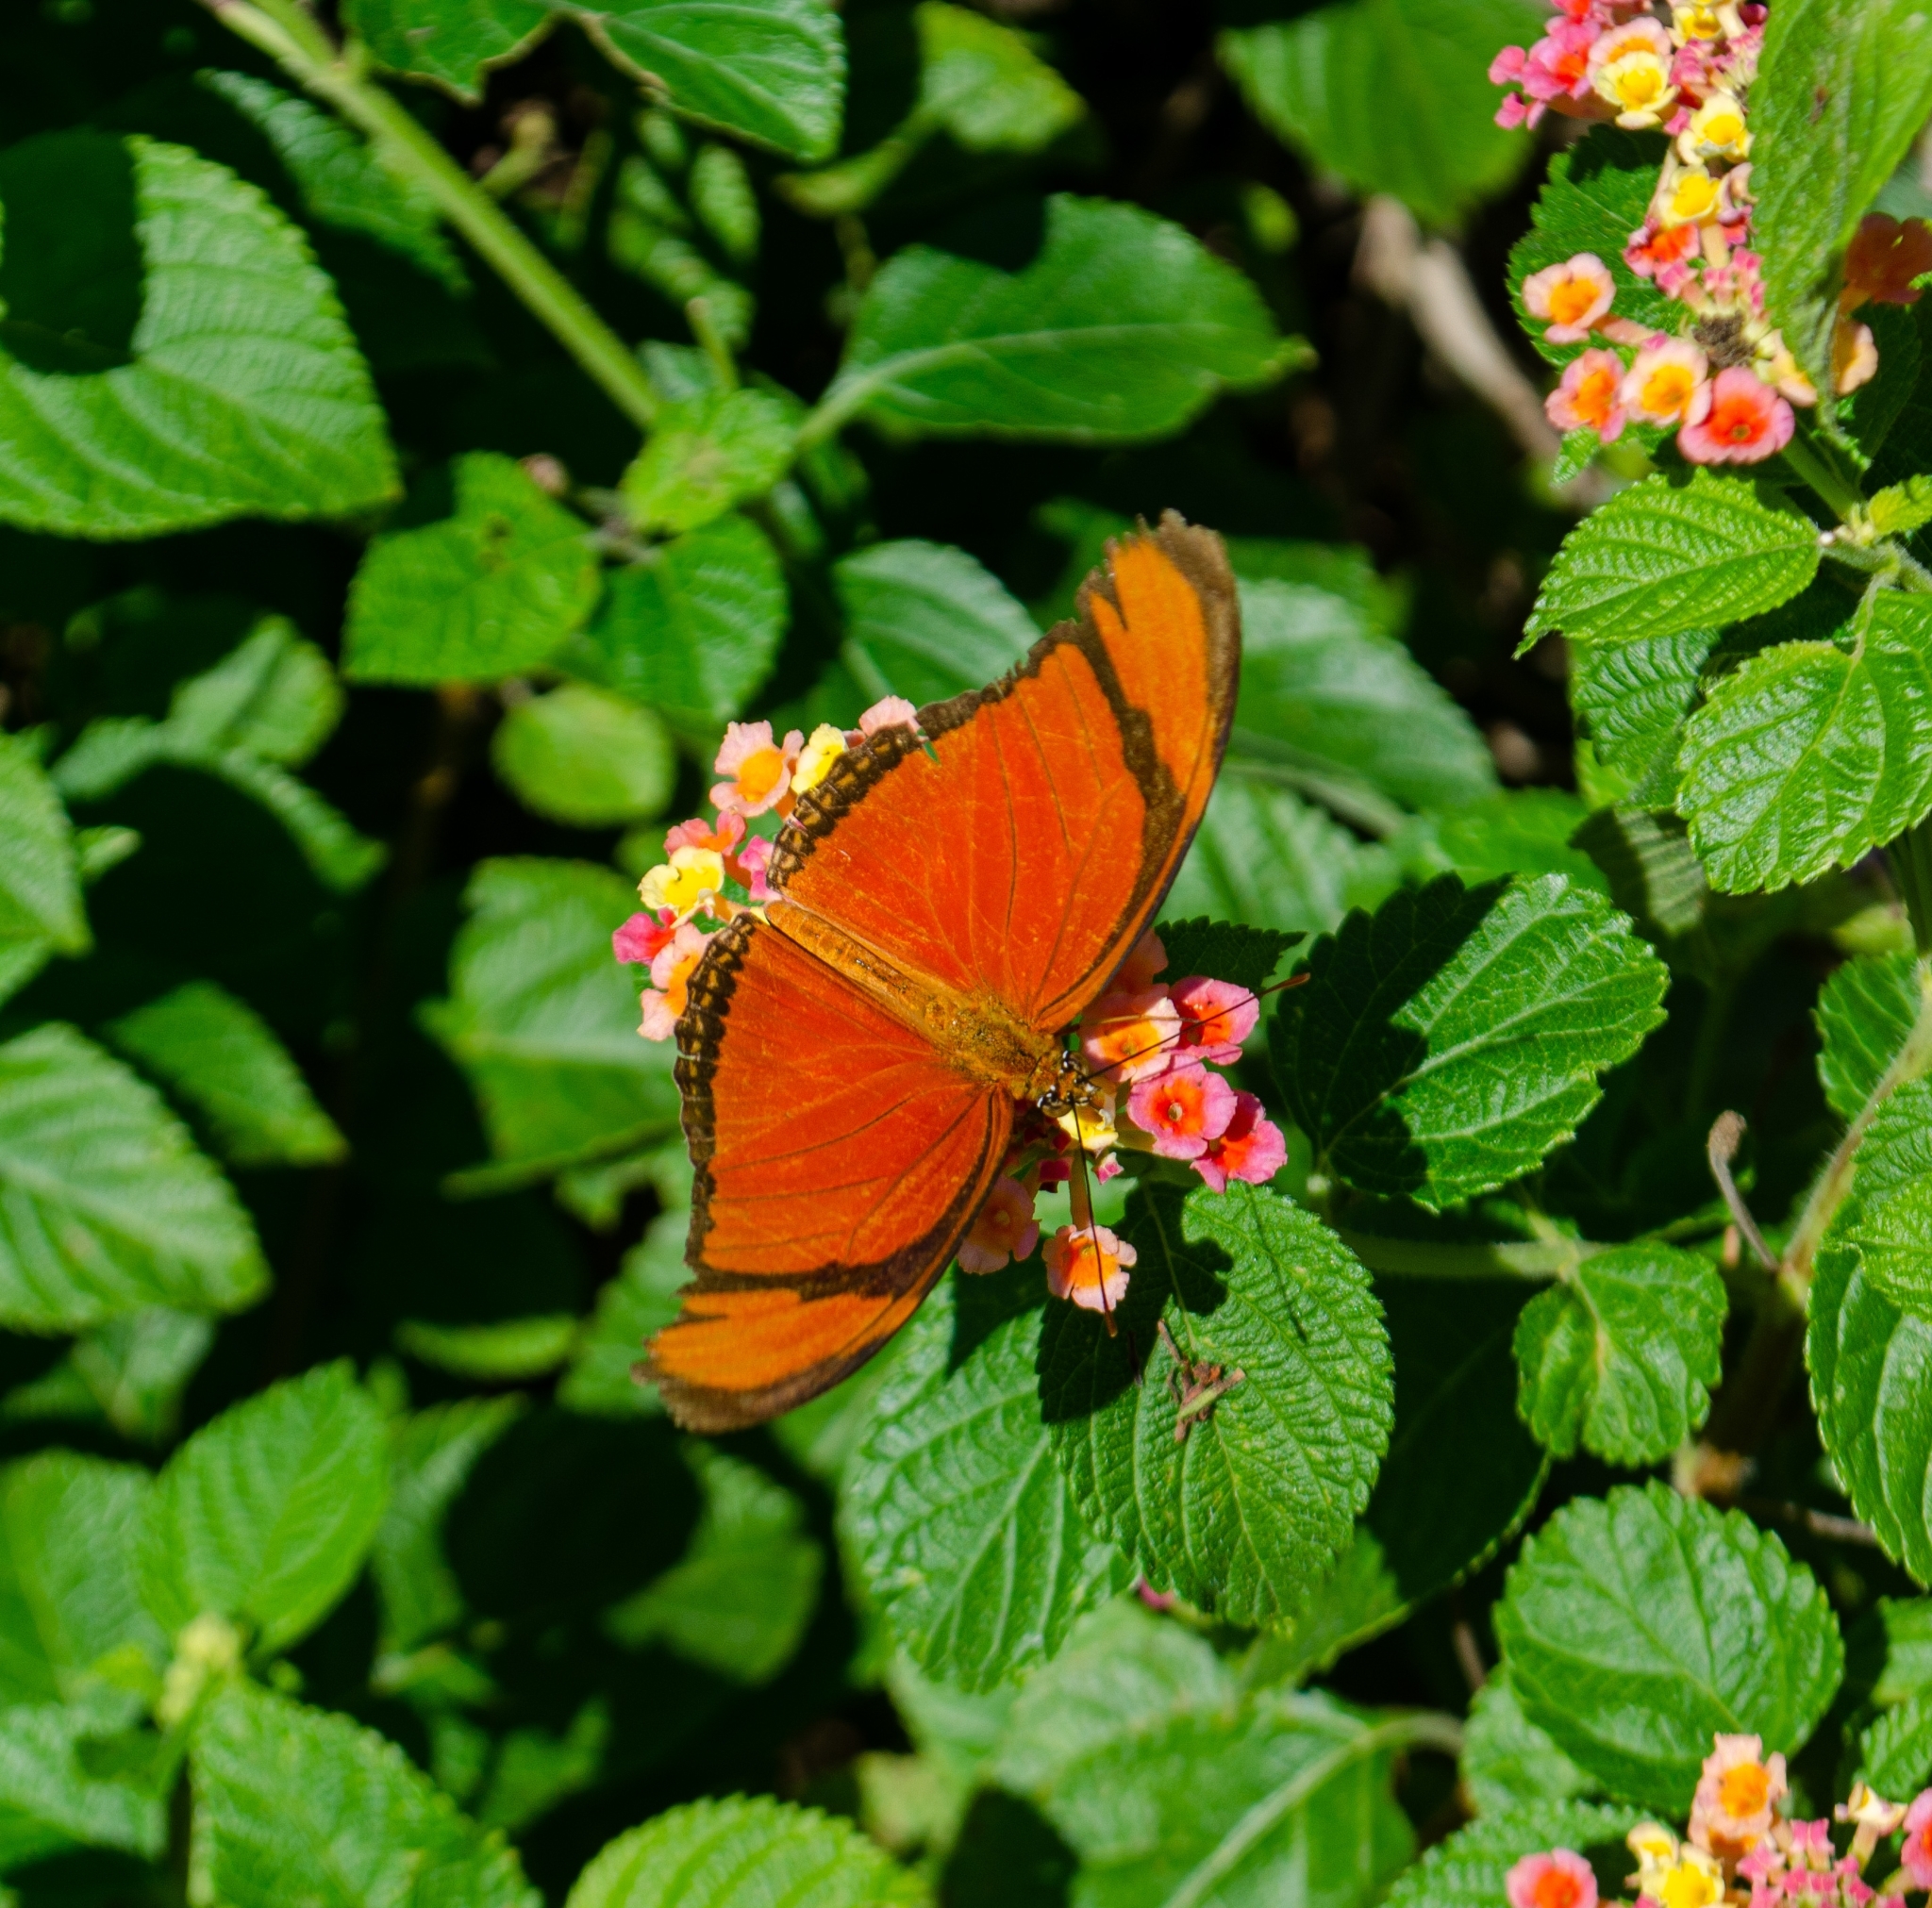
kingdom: Animalia
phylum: Arthropoda
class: Insecta
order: Lepidoptera
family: Nymphalidae
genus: Dryas
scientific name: Dryas iulia
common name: Flambeau
